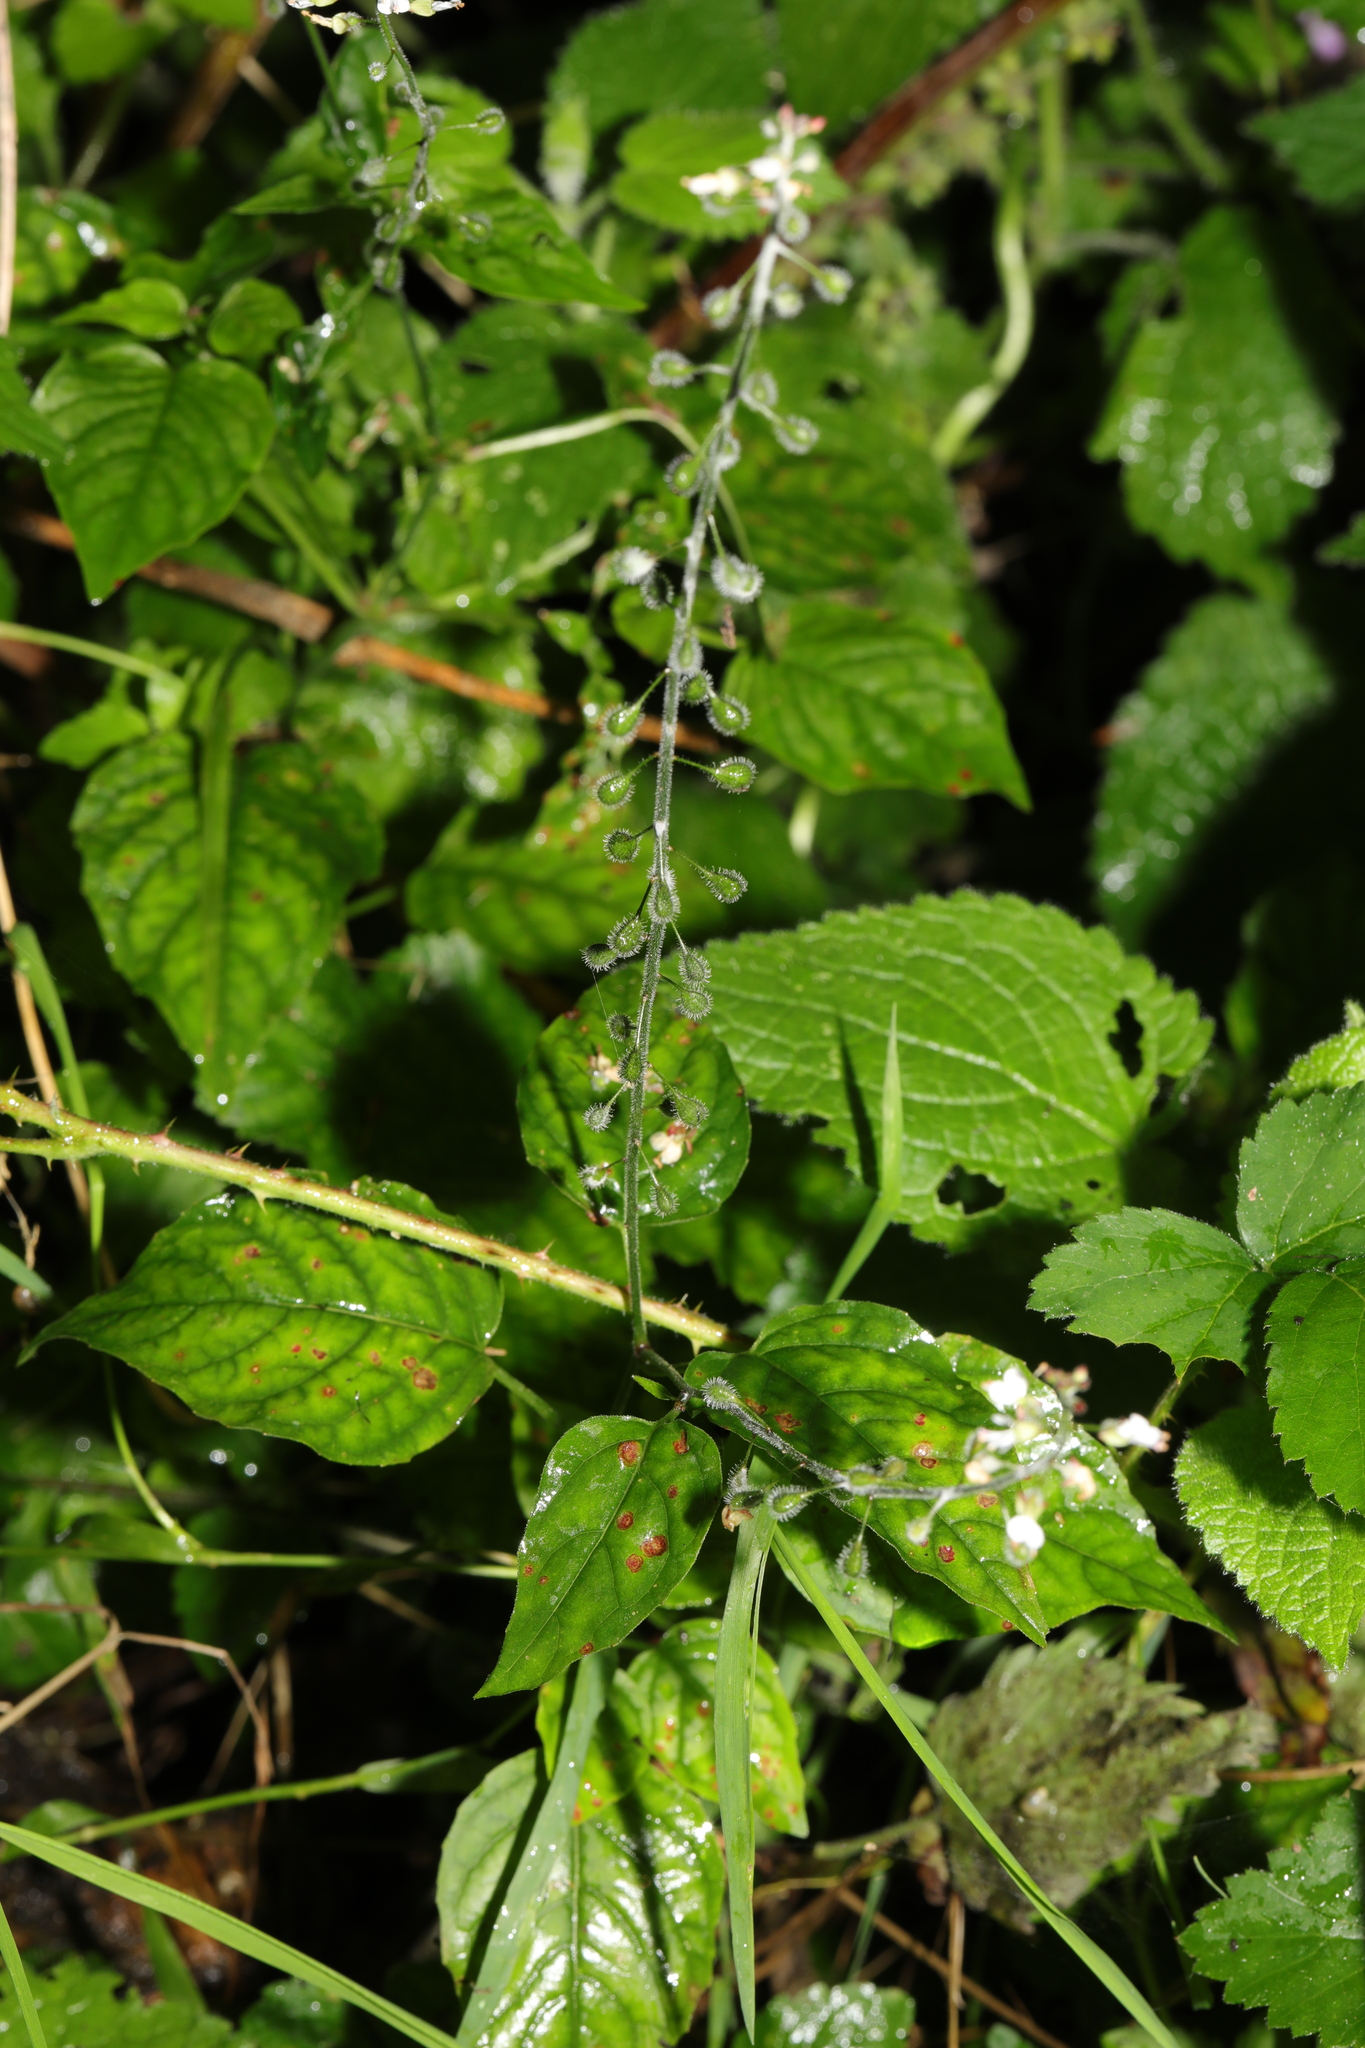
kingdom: Plantae
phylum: Tracheophyta
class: Magnoliopsida
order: Myrtales
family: Onagraceae
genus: Circaea
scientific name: Circaea lutetiana
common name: Enchanter's-nightshade
